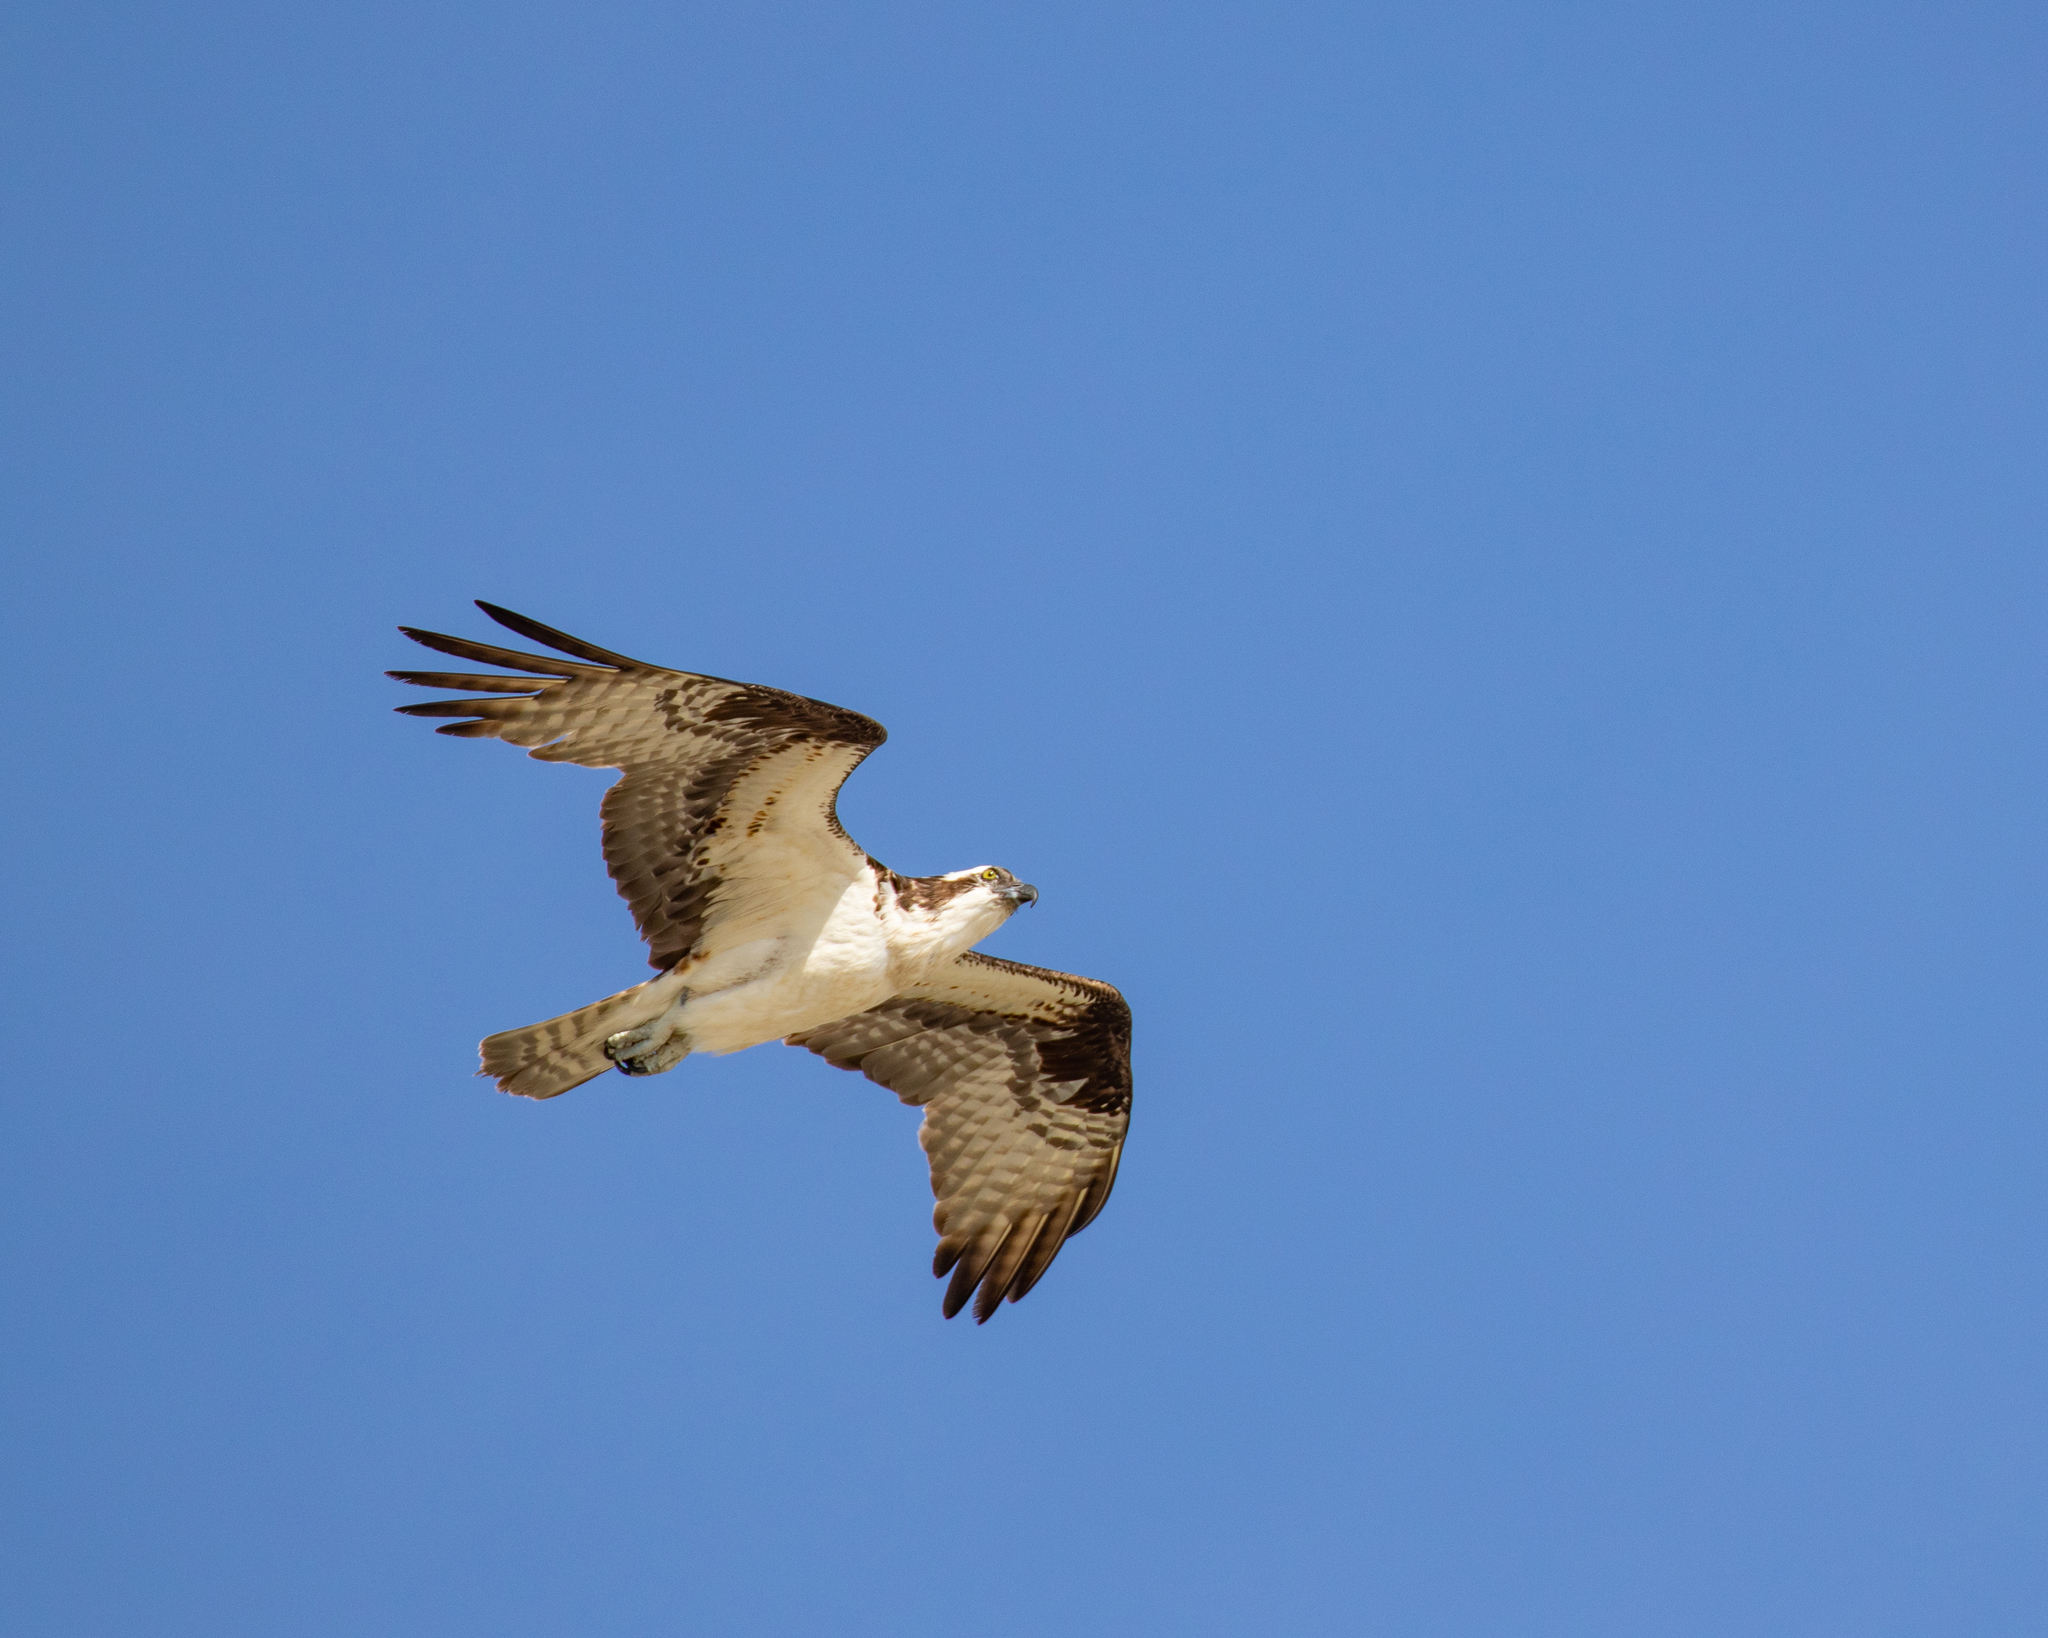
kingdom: Animalia
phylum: Chordata
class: Aves
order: Accipitriformes
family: Pandionidae
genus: Pandion
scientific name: Pandion haliaetus
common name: Osprey
